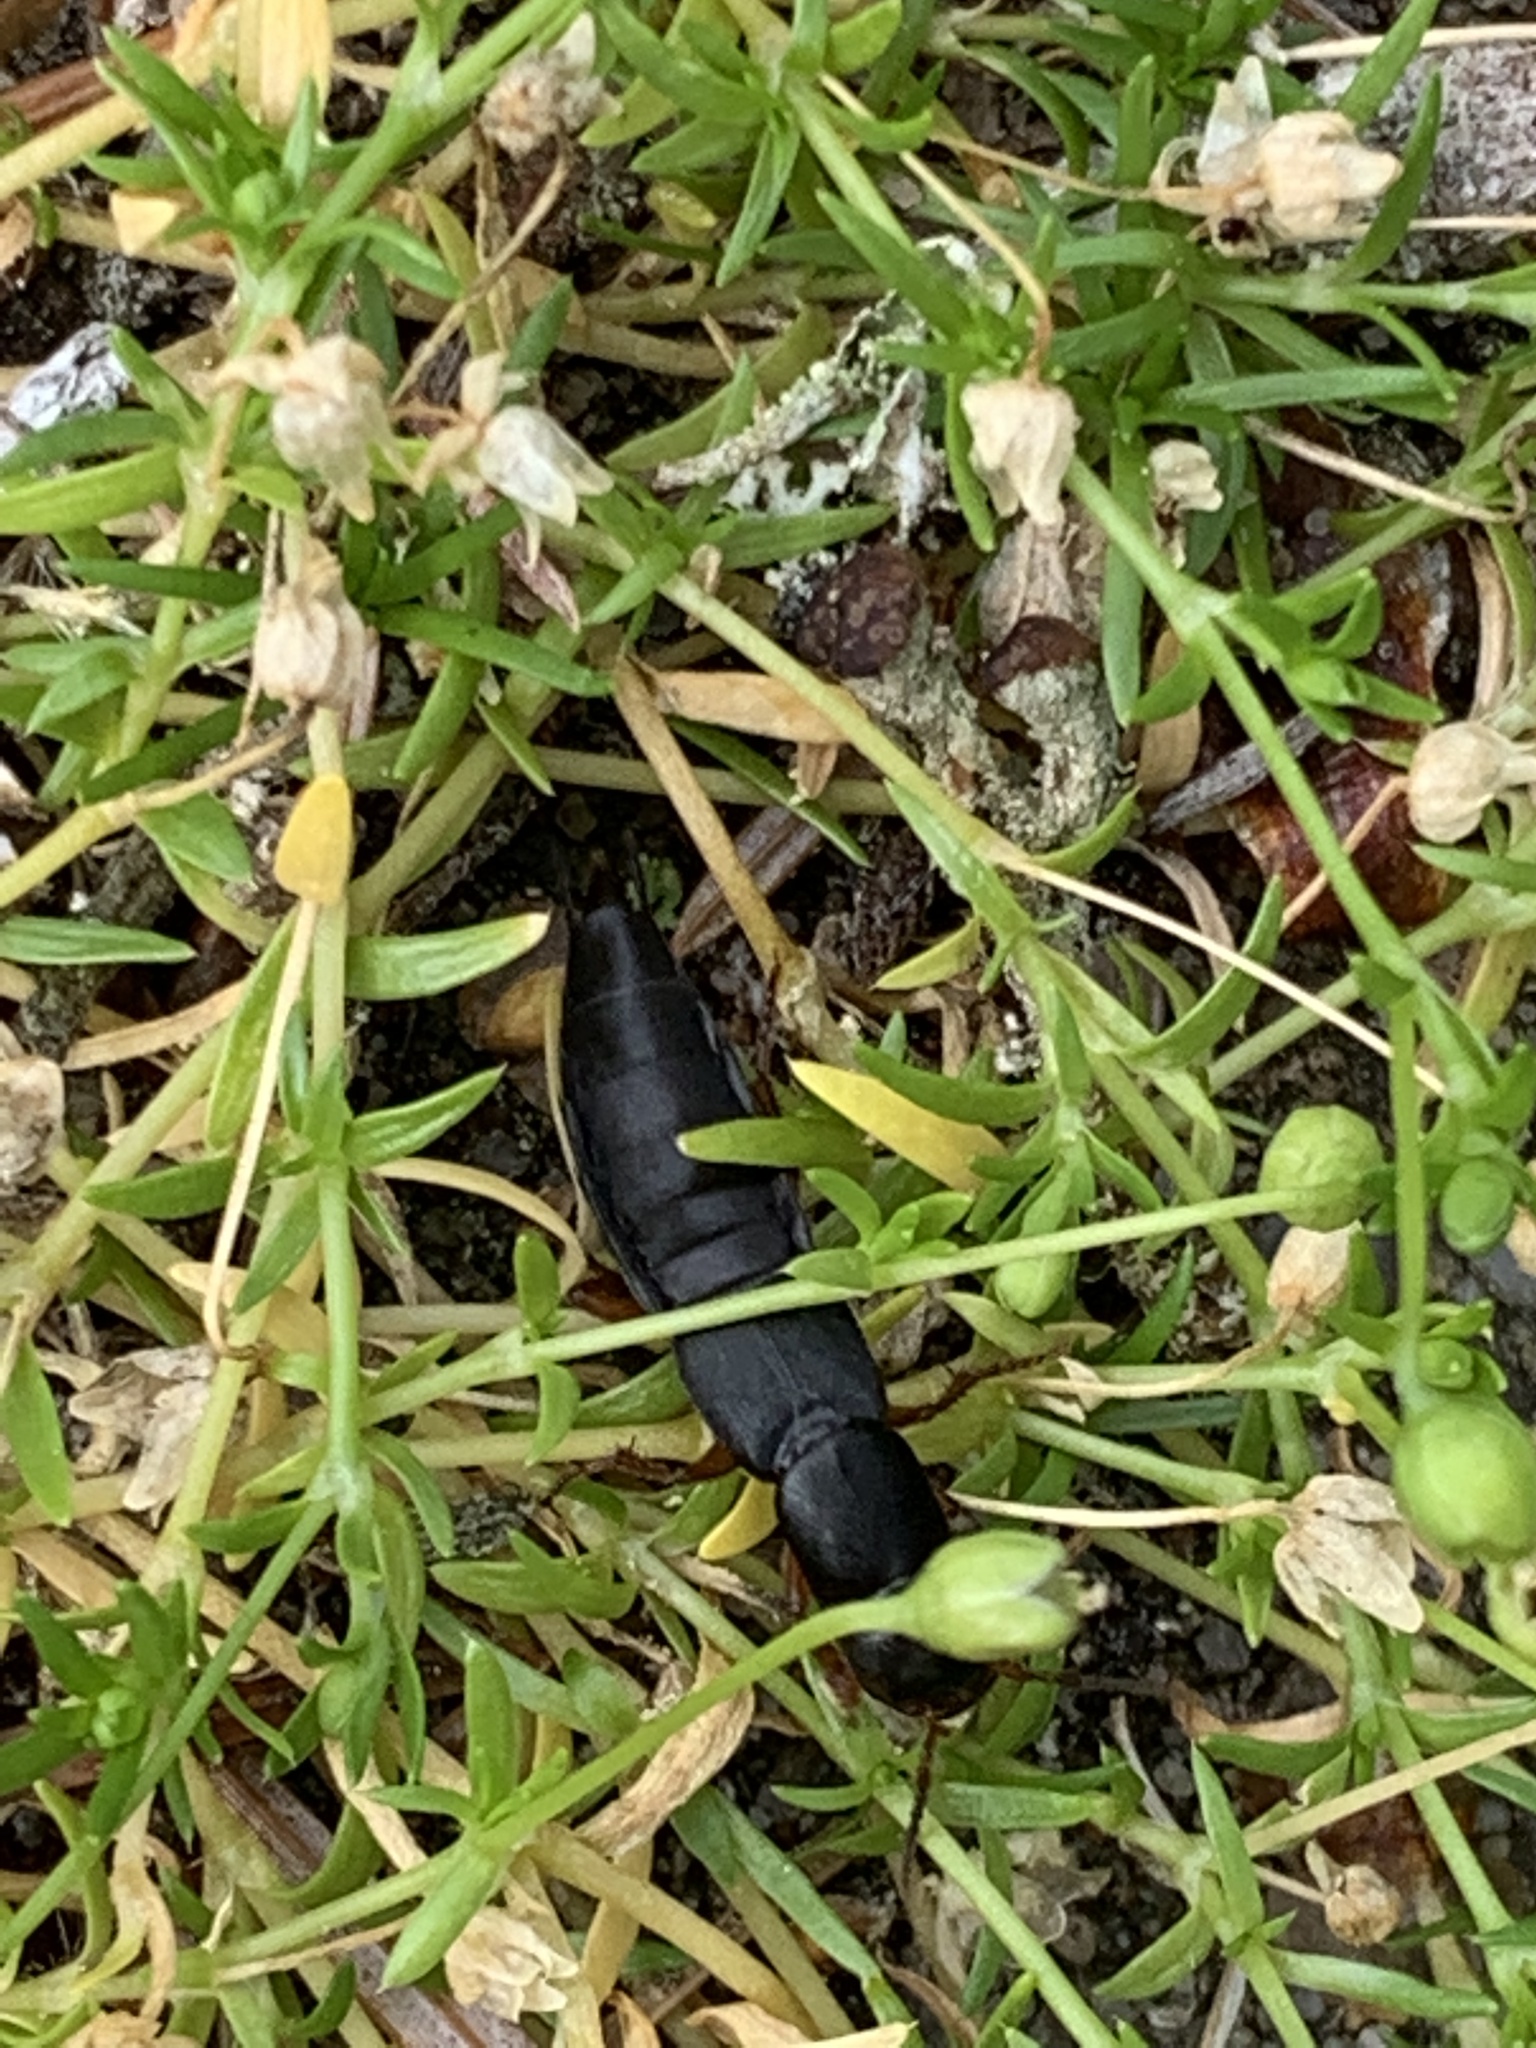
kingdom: Animalia
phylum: Arthropoda
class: Insecta
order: Coleoptera
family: Staphylinidae
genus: Tasgius
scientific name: Tasgius morsitans
